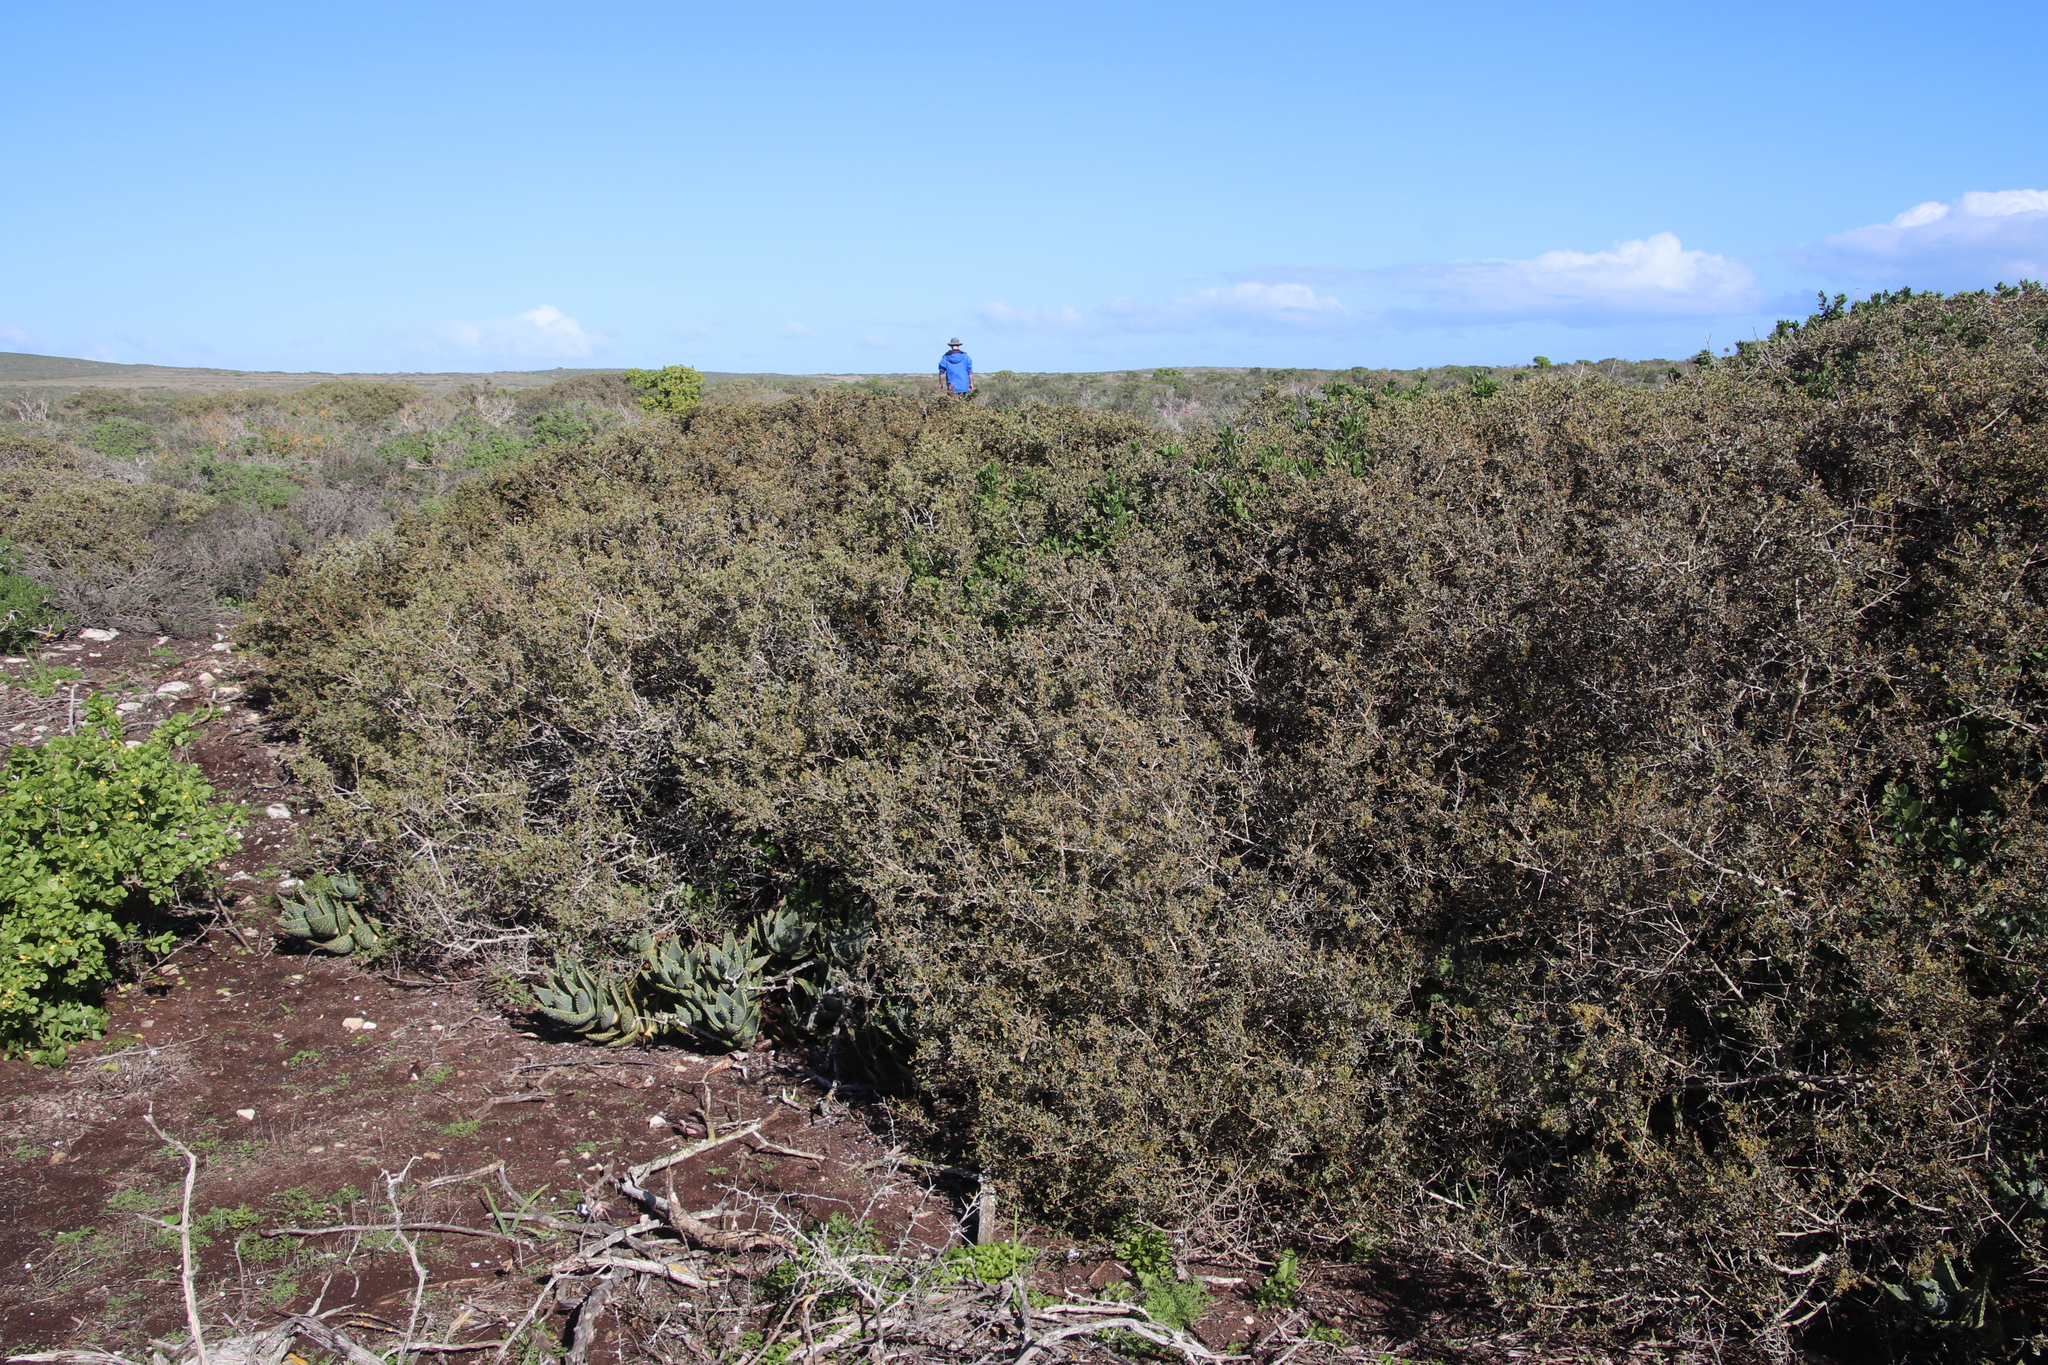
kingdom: Plantae
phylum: Tracheophyta
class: Magnoliopsida
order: Sapindales
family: Anacardiaceae
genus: Searsia
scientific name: Searsia glauca
